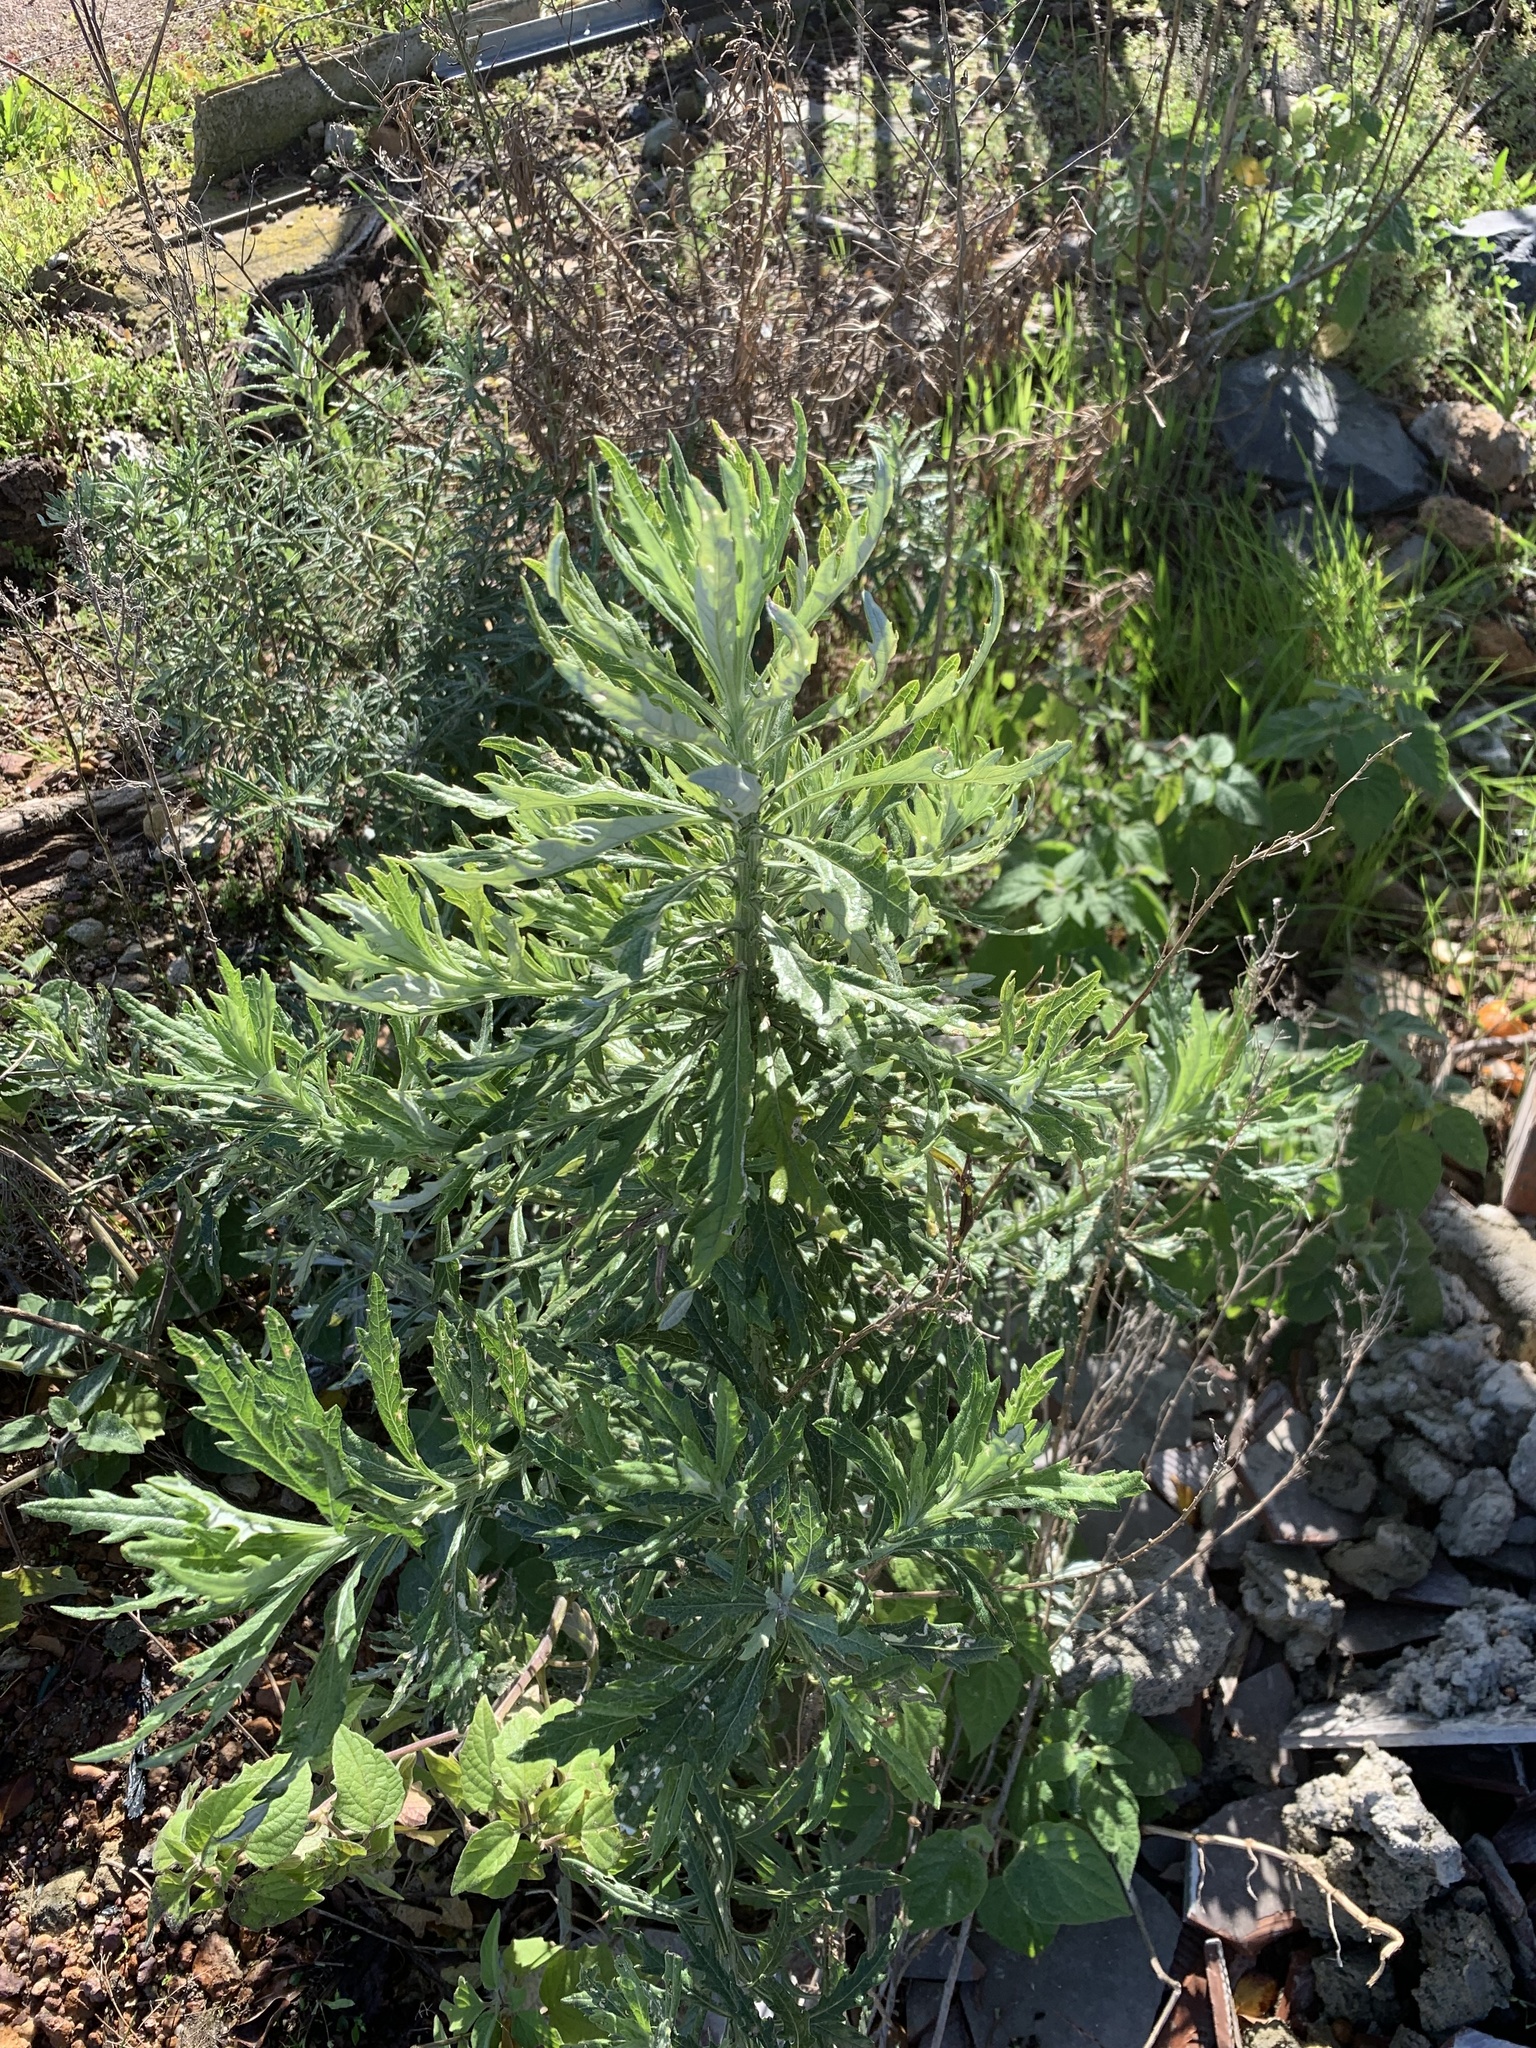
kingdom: Plantae
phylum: Tracheophyta
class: Magnoliopsida
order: Asterales
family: Asteraceae
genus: Senecio
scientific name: Senecio pterophorus
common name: Shoddy ragwort
